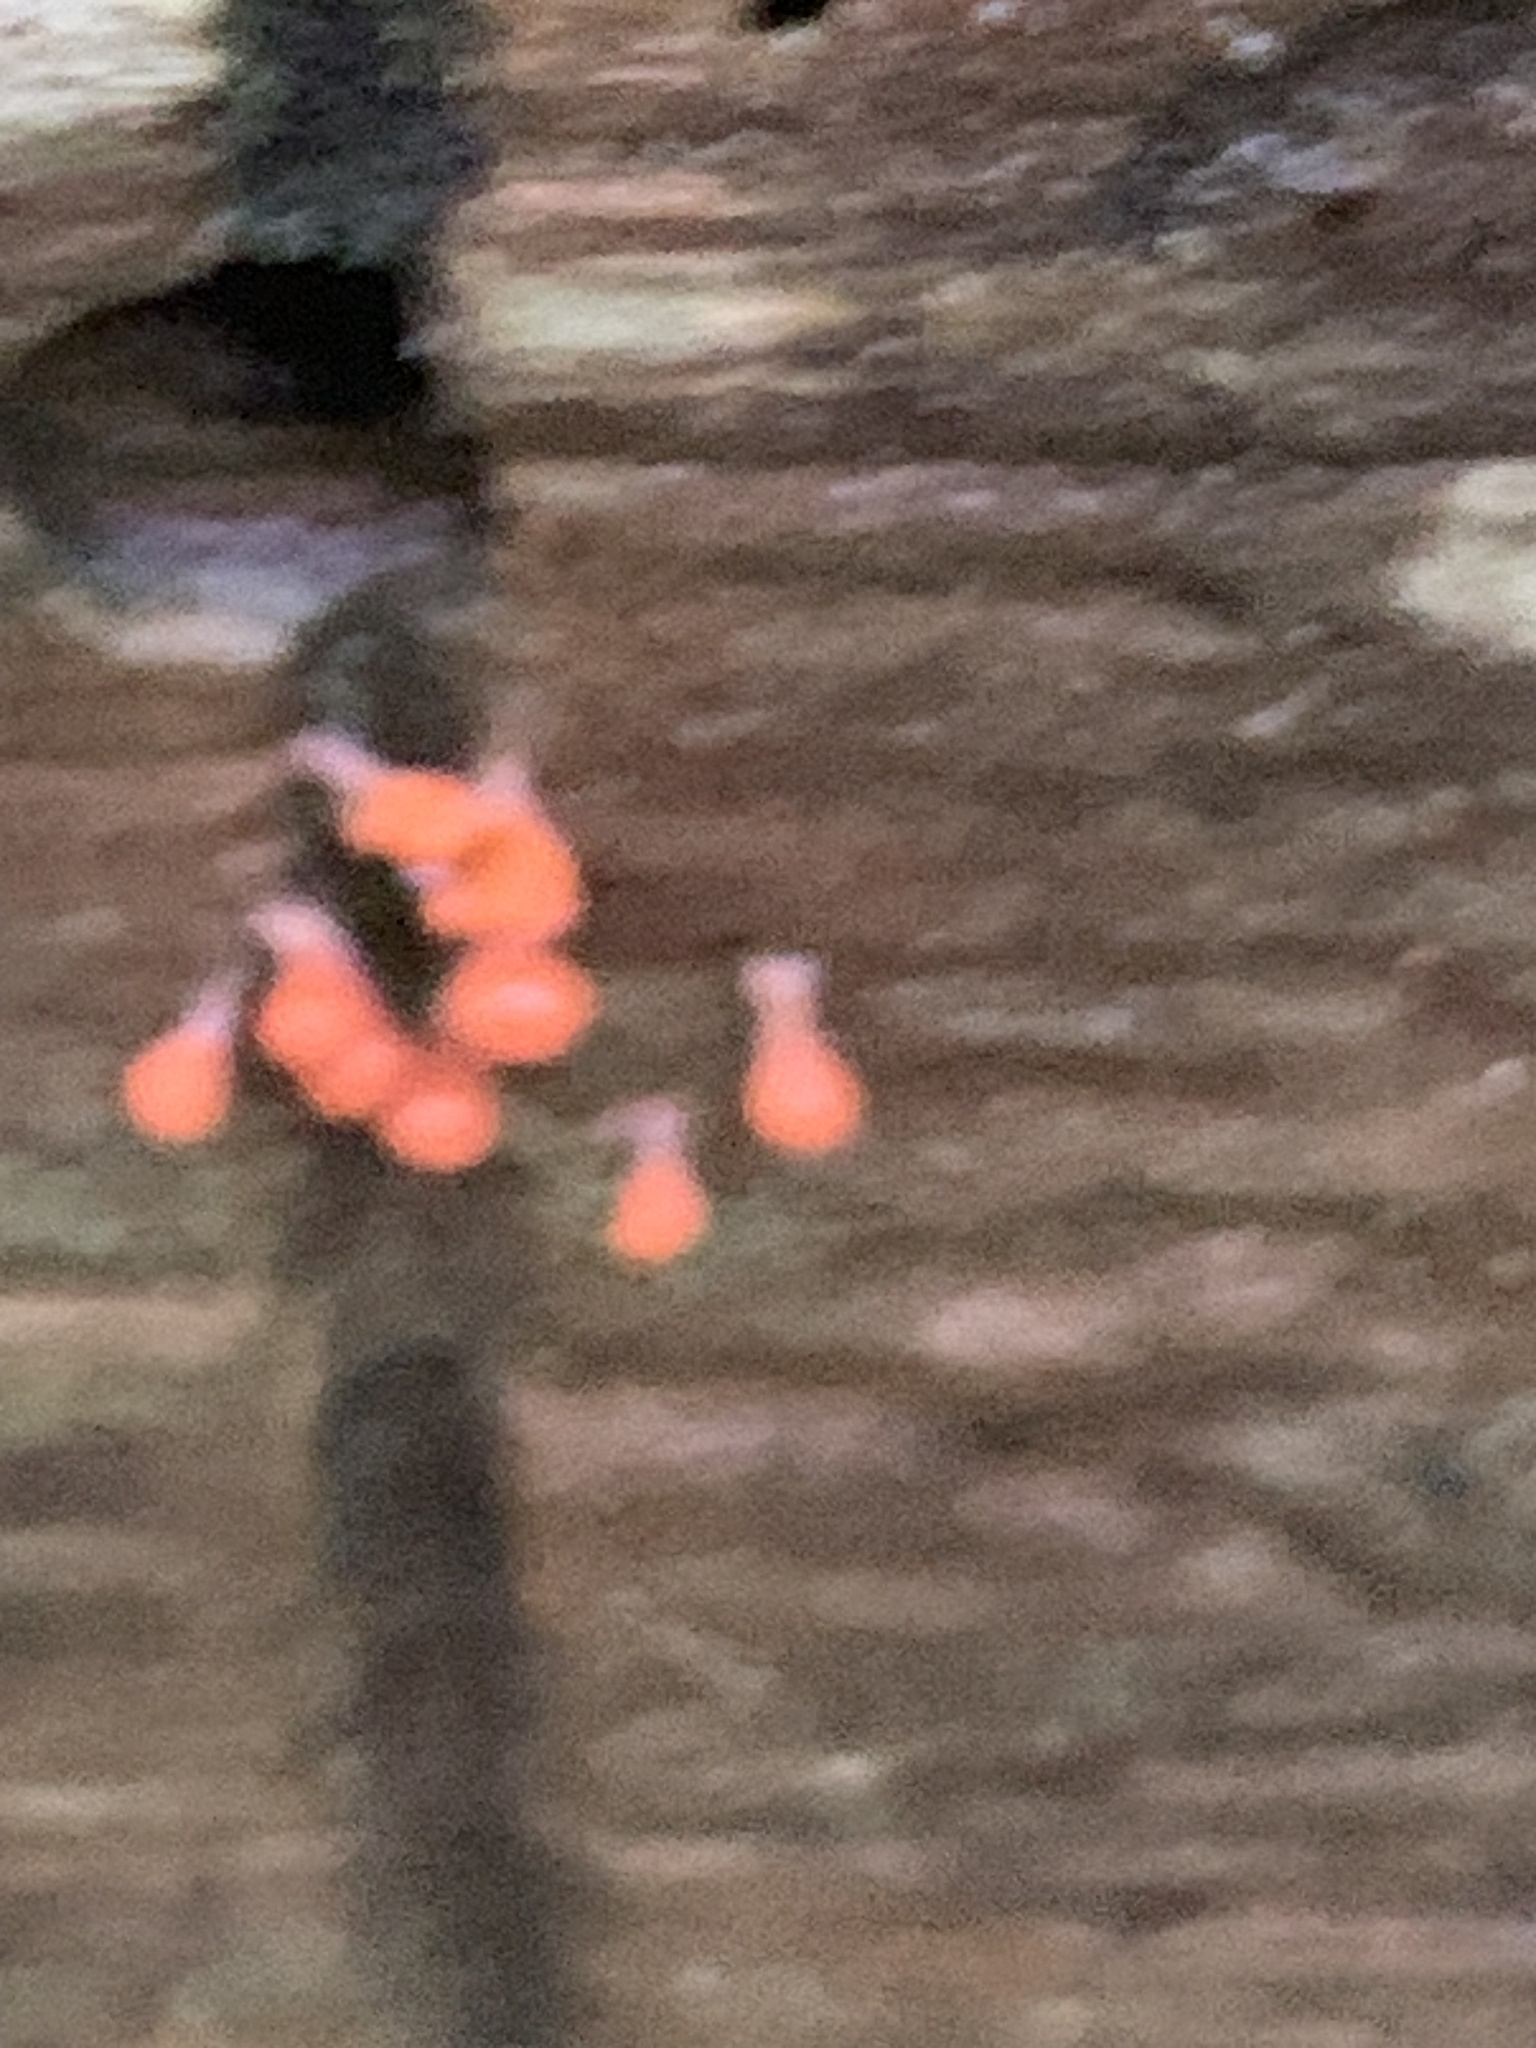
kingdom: Protozoa
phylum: Mycetozoa
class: Myxomycetes
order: Trichiales
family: Arcyriaceae
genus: Hemitrichia
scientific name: Hemitrichia decipiens
